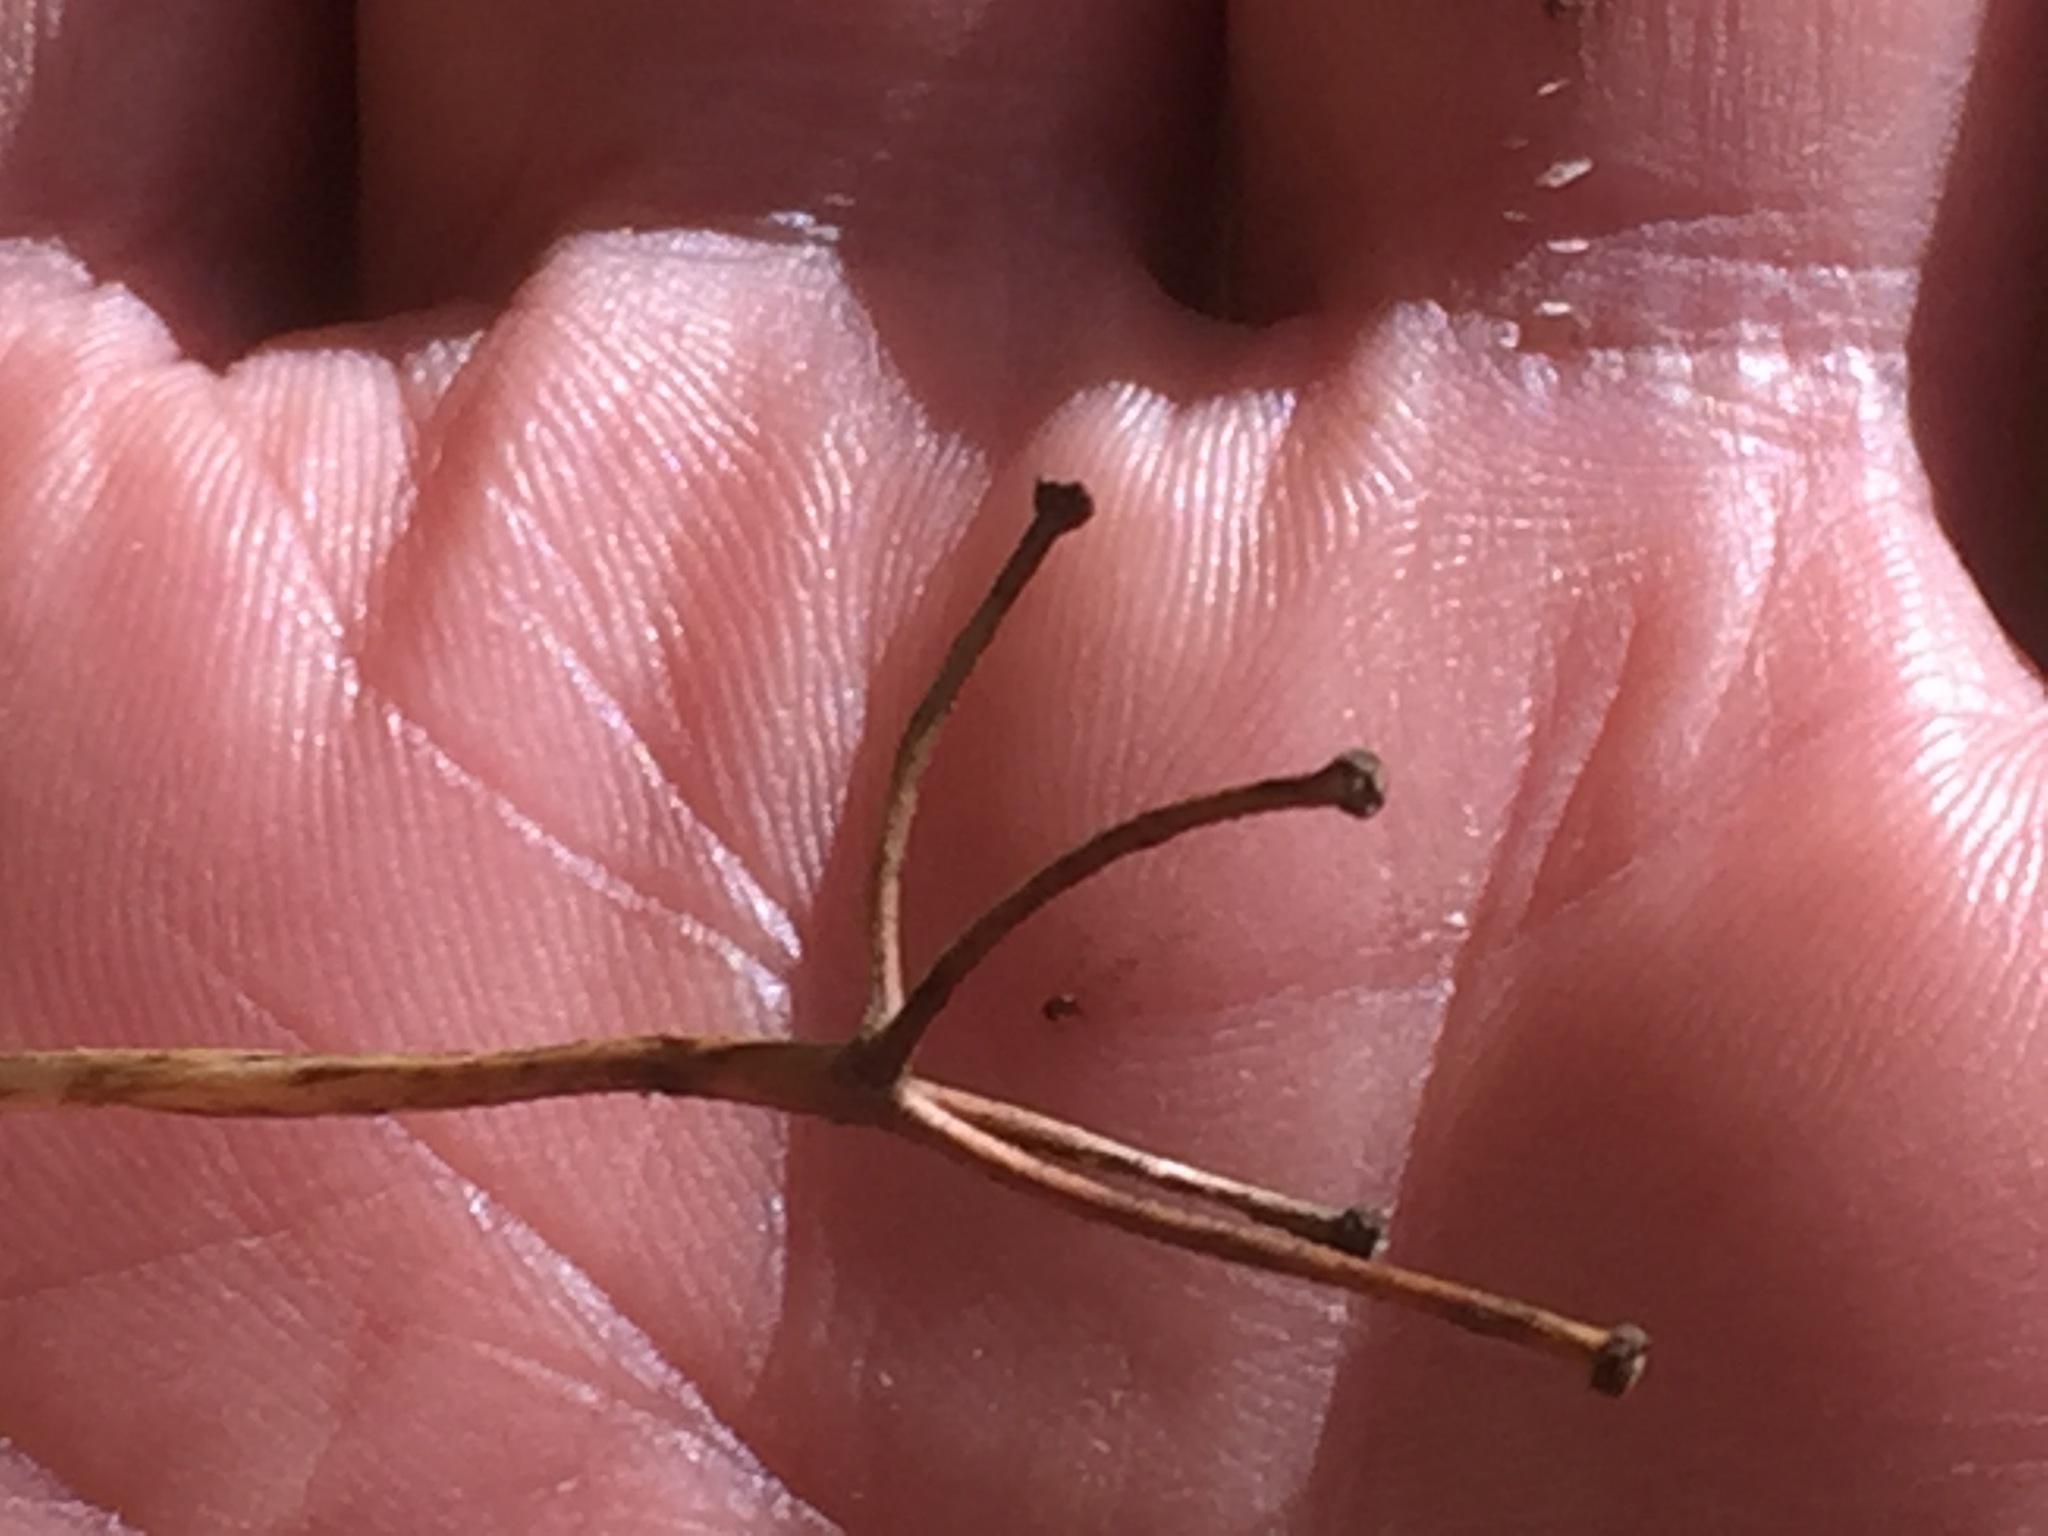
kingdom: Plantae
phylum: Tracheophyta
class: Liliopsida
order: Liliales
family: Liliaceae
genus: Clintonia
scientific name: Clintonia borealis
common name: Yellow clintonia
